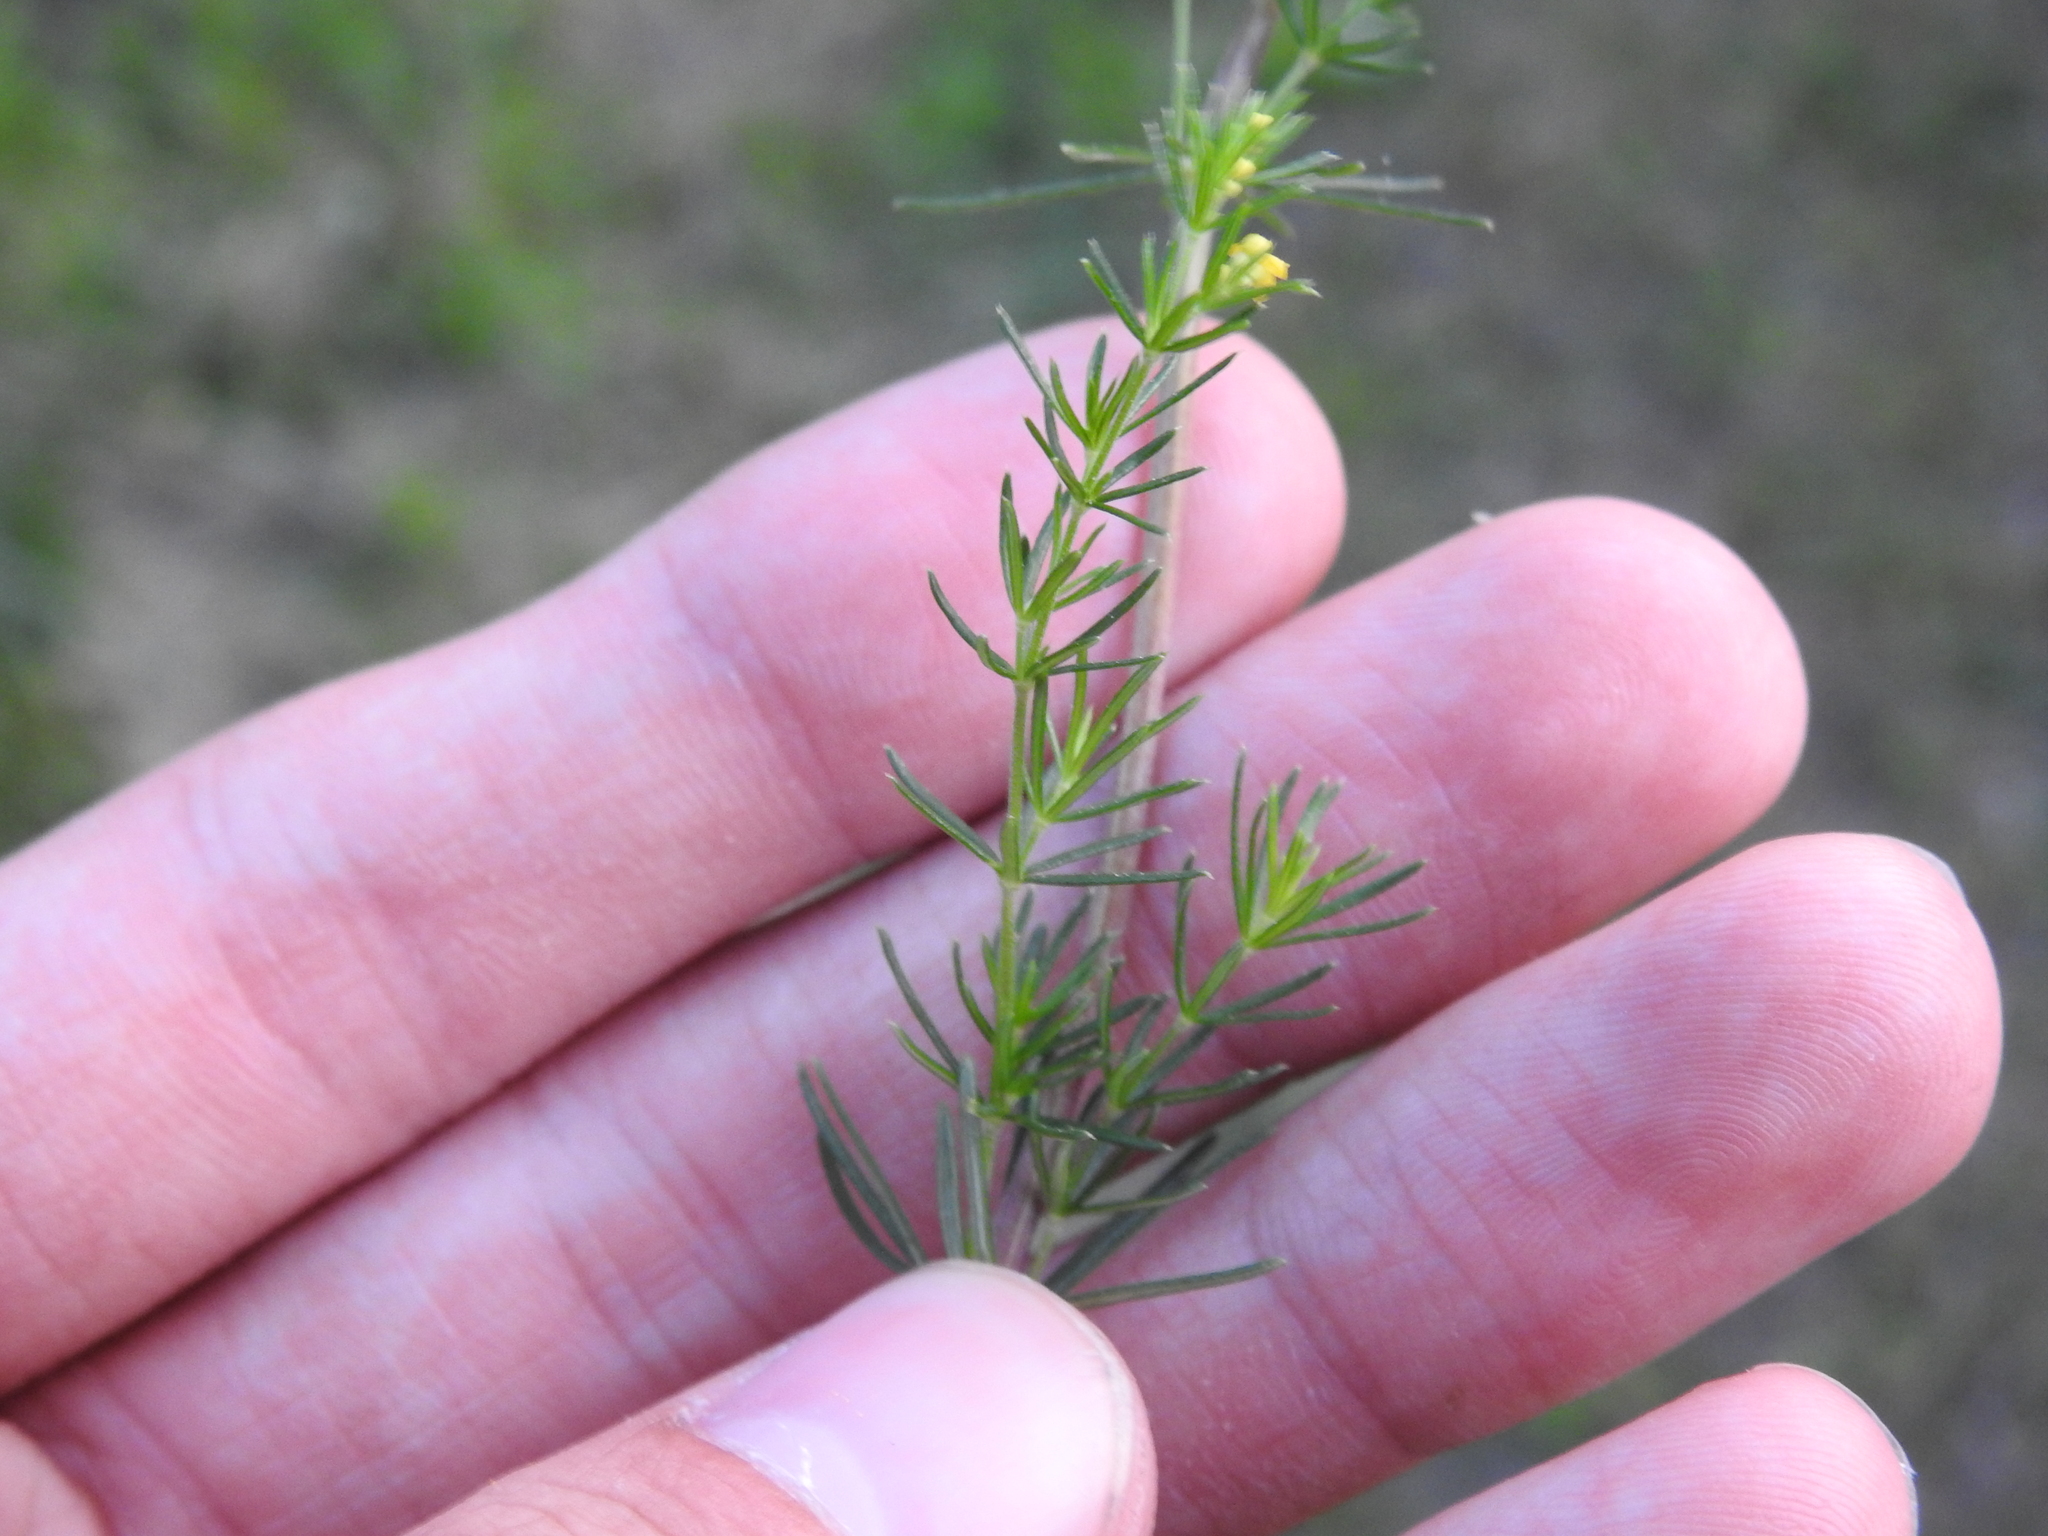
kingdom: Plantae
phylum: Tracheophyta
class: Magnoliopsida
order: Gentianales
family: Rubiaceae
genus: Galium
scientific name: Galium verum
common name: Lady's bedstraw
